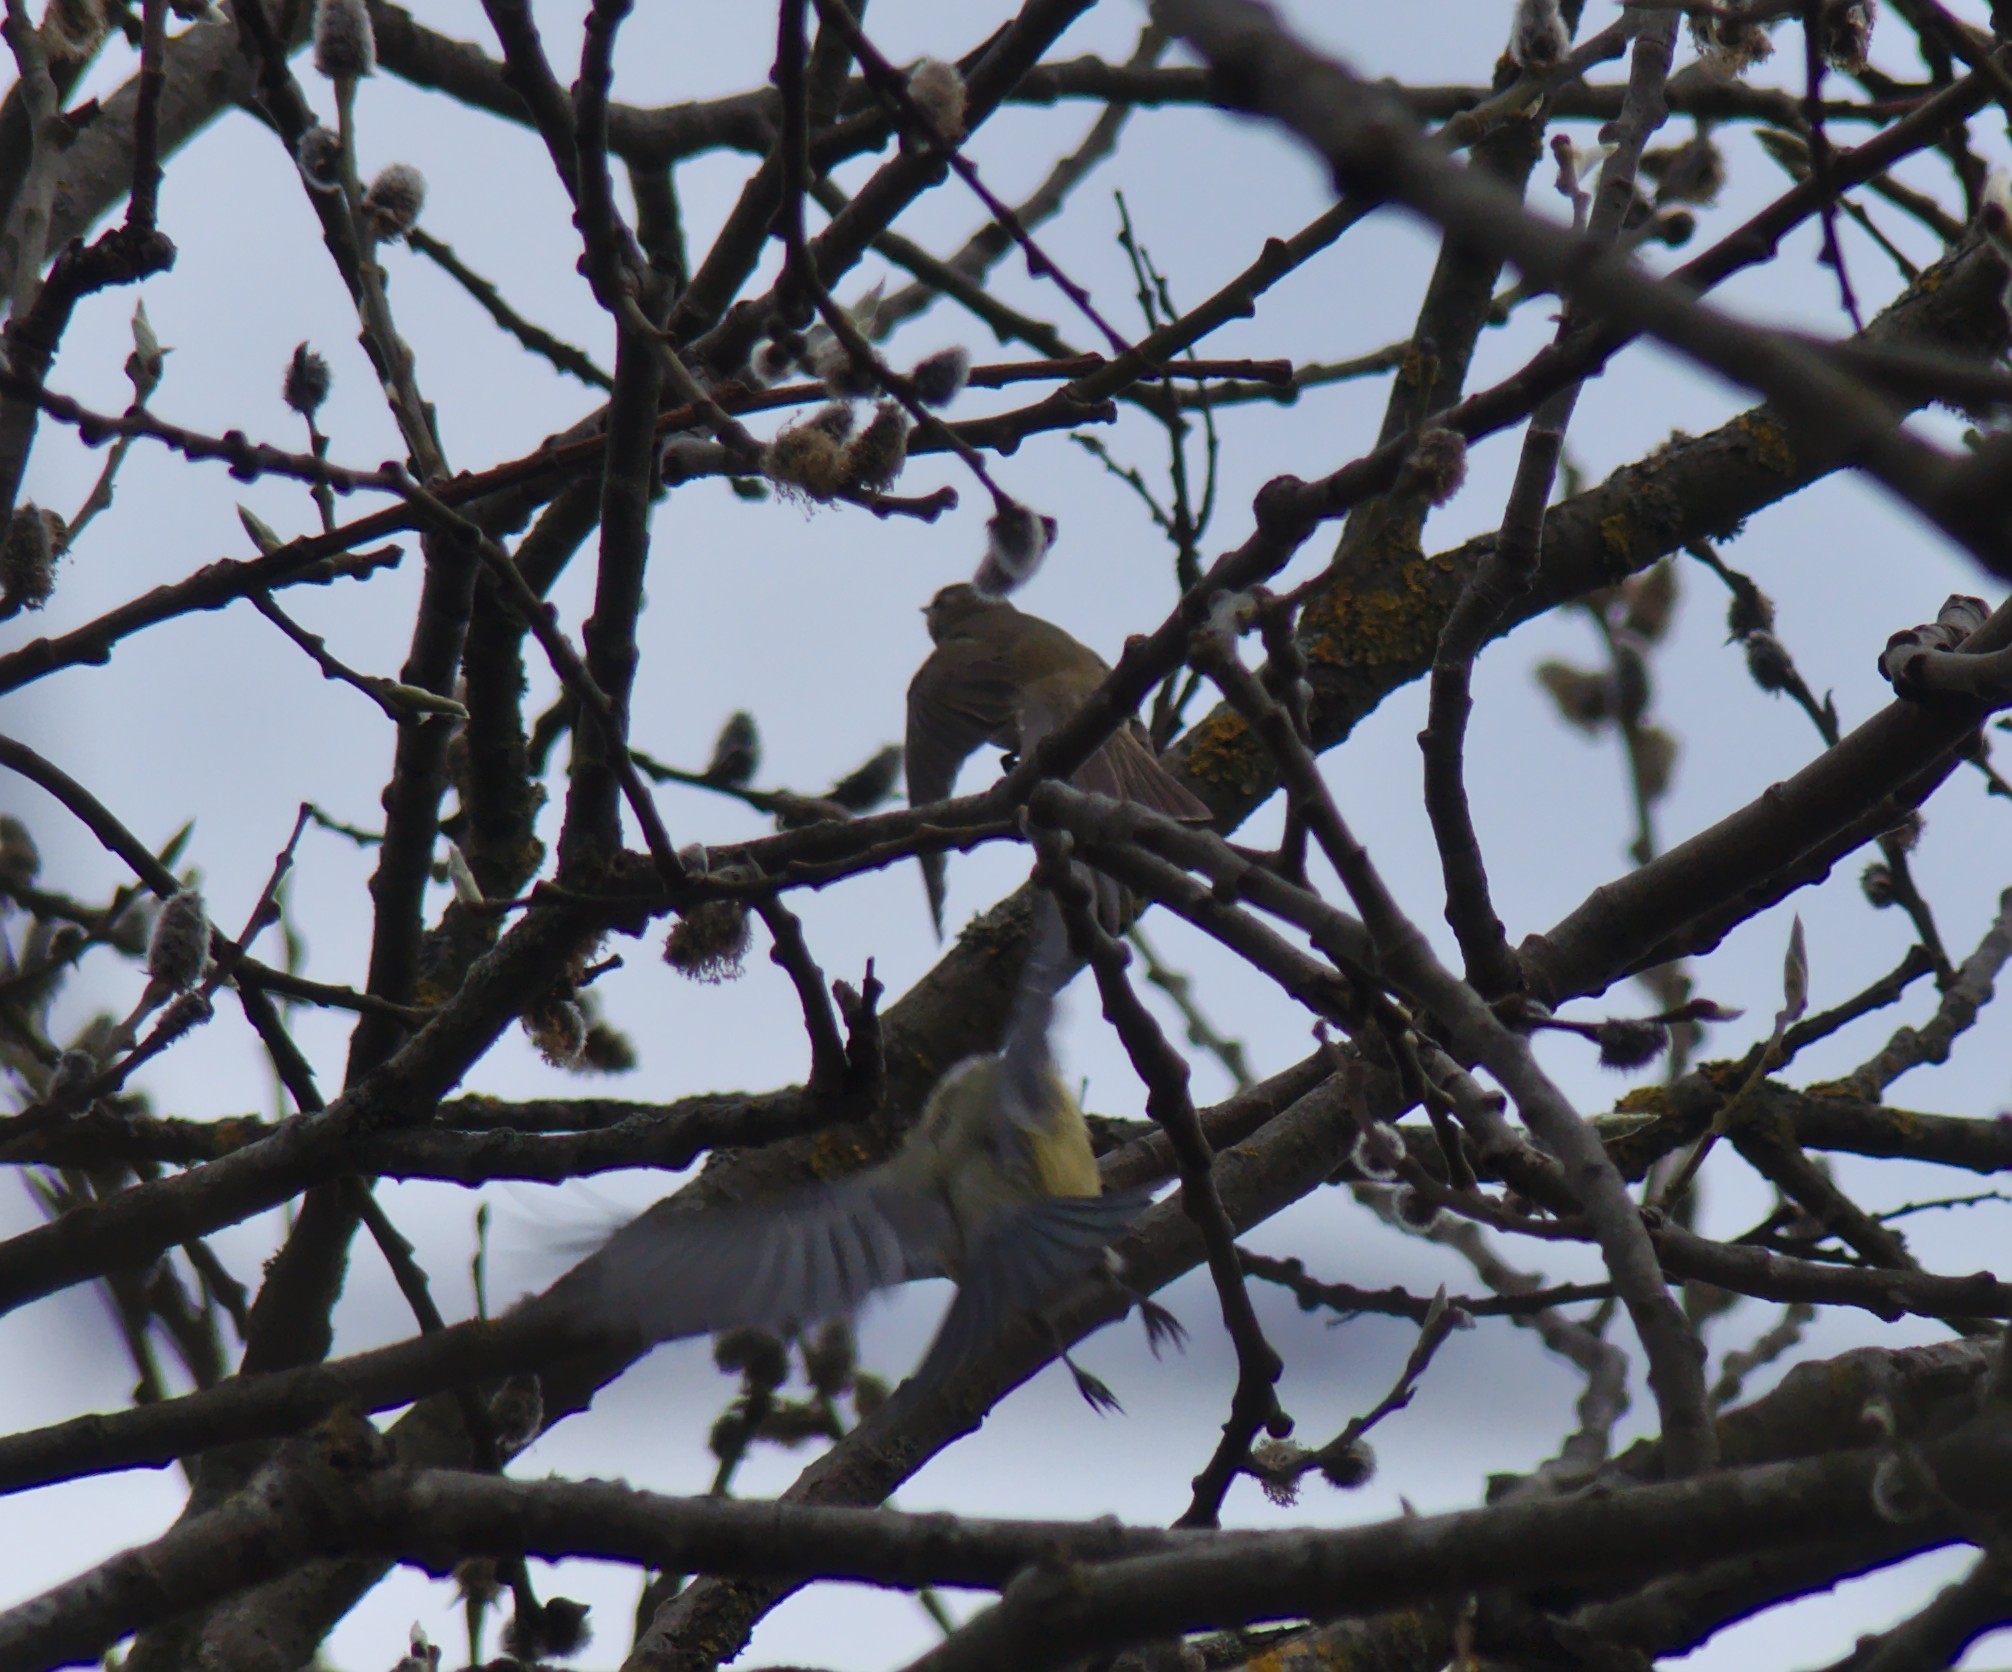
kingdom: Animalia
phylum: Chordata
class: Aves
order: Passeriformes
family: Paridae
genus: Cyanistes
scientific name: Cyanistes caeruleus
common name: Eurasian blue tit
